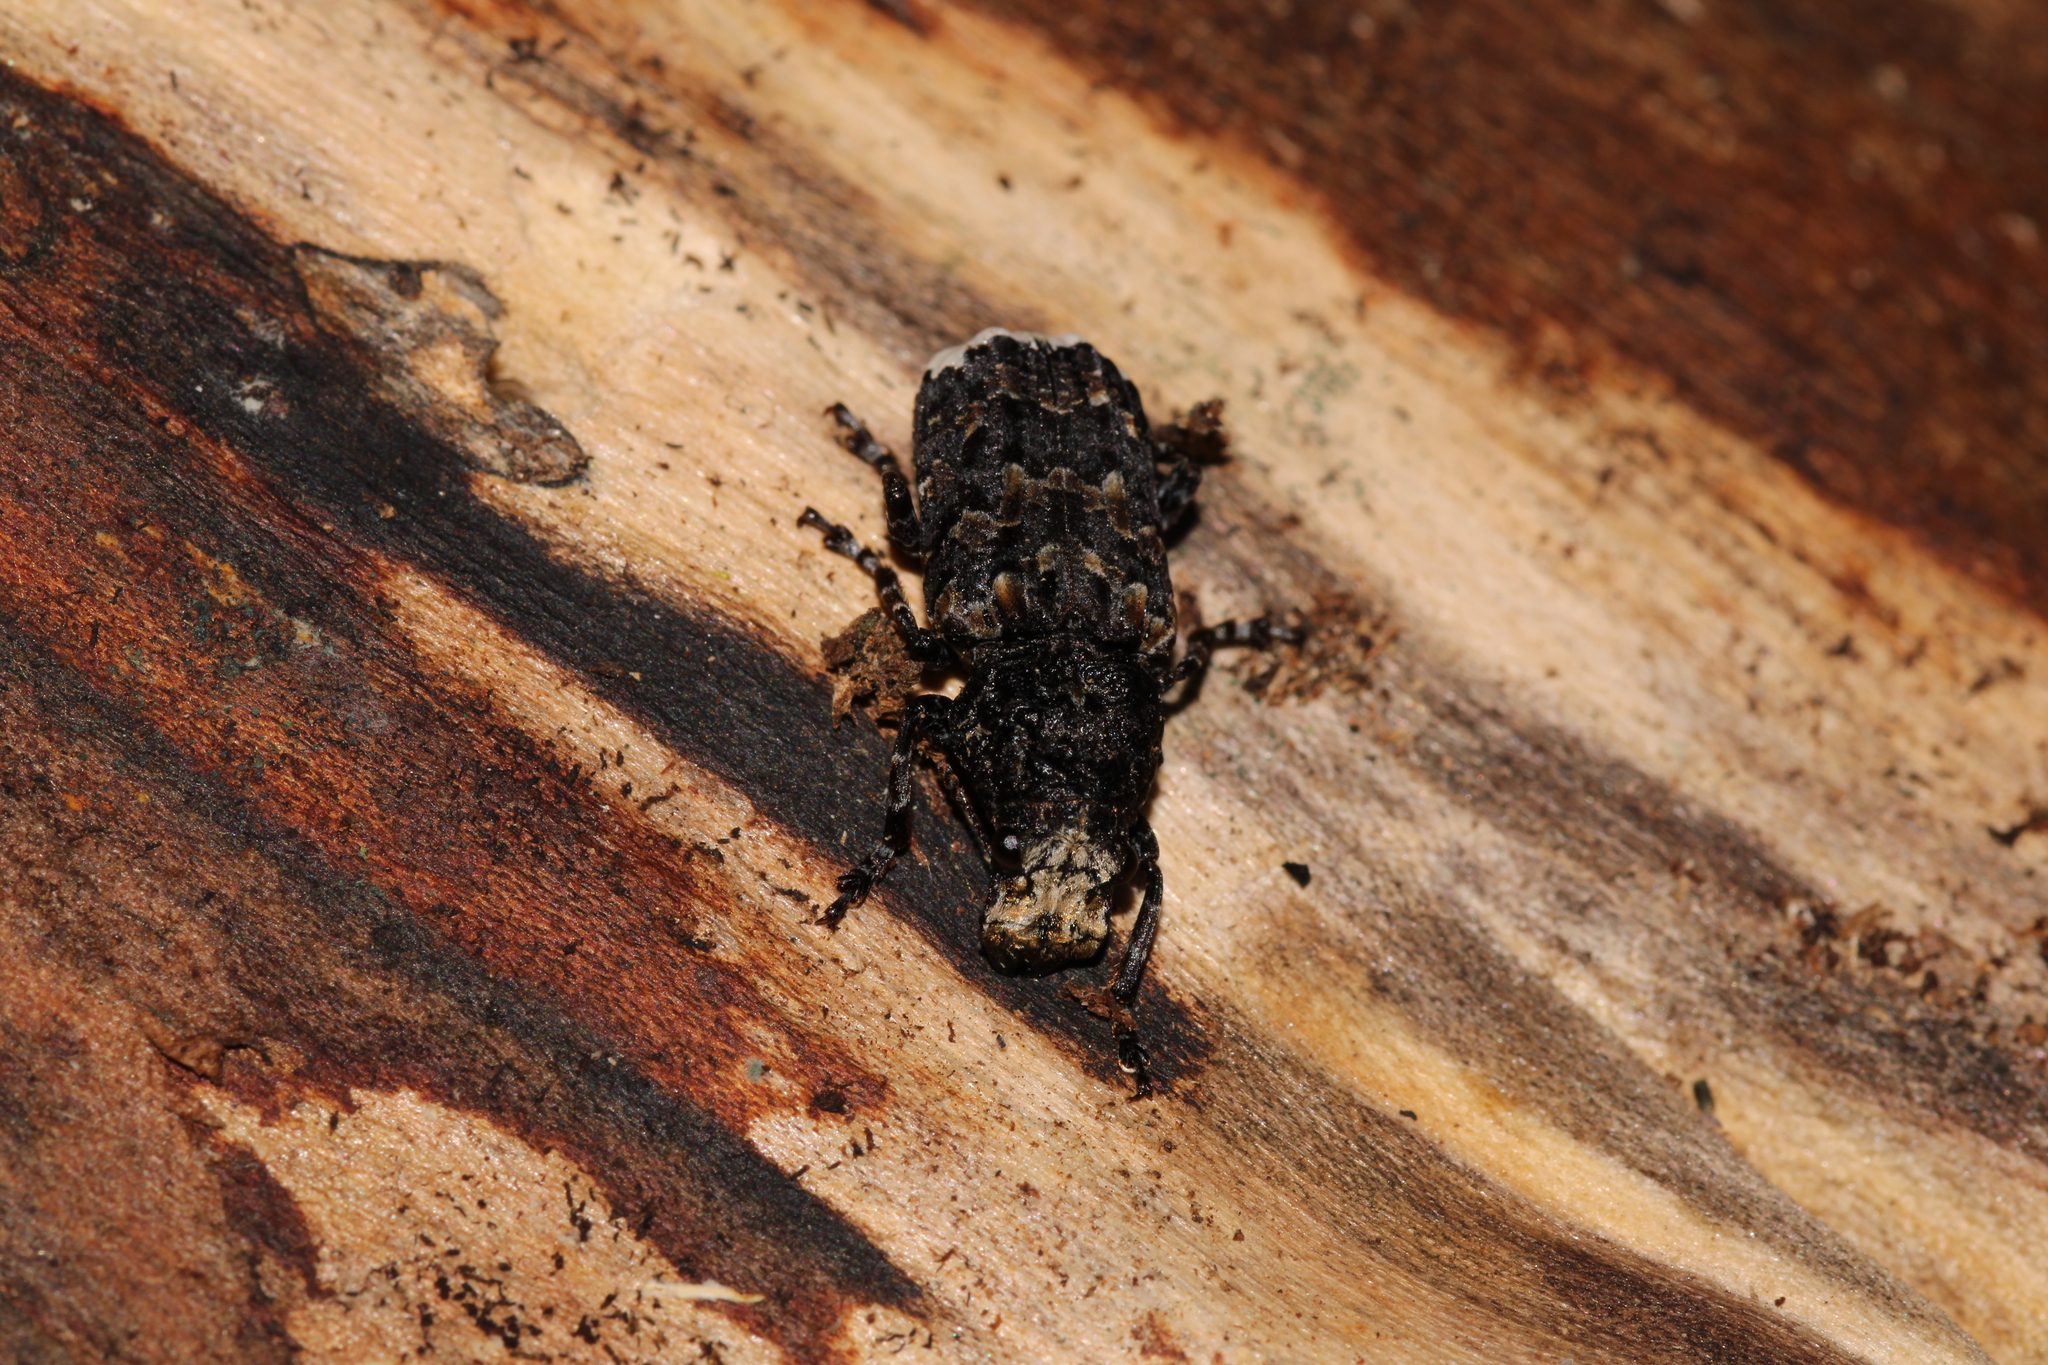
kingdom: Animalia
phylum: Arthropoda
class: Insecta
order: Coleoptera
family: Anthribidae
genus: Platyrhinus
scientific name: Platyrhinus resinosus
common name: Cramp-ball fungus weevil
